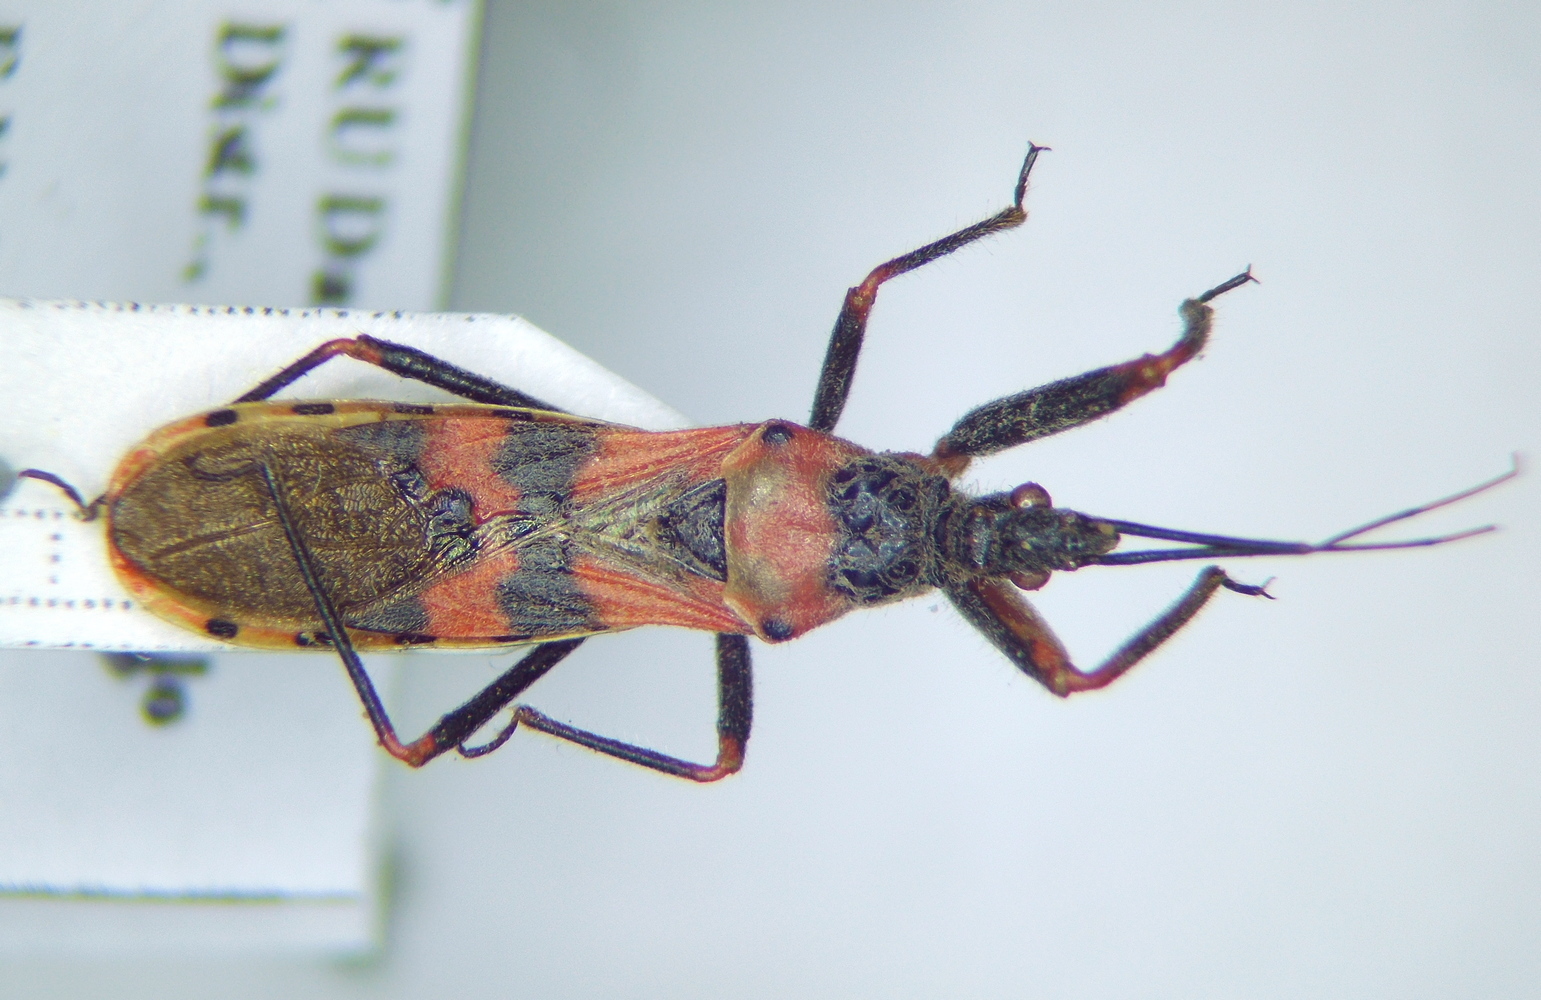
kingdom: Animalia
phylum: Arthropoda
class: Insecta
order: Hemiptera
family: Reduviidae
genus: Callistodema
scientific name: Callistodema fasciata
